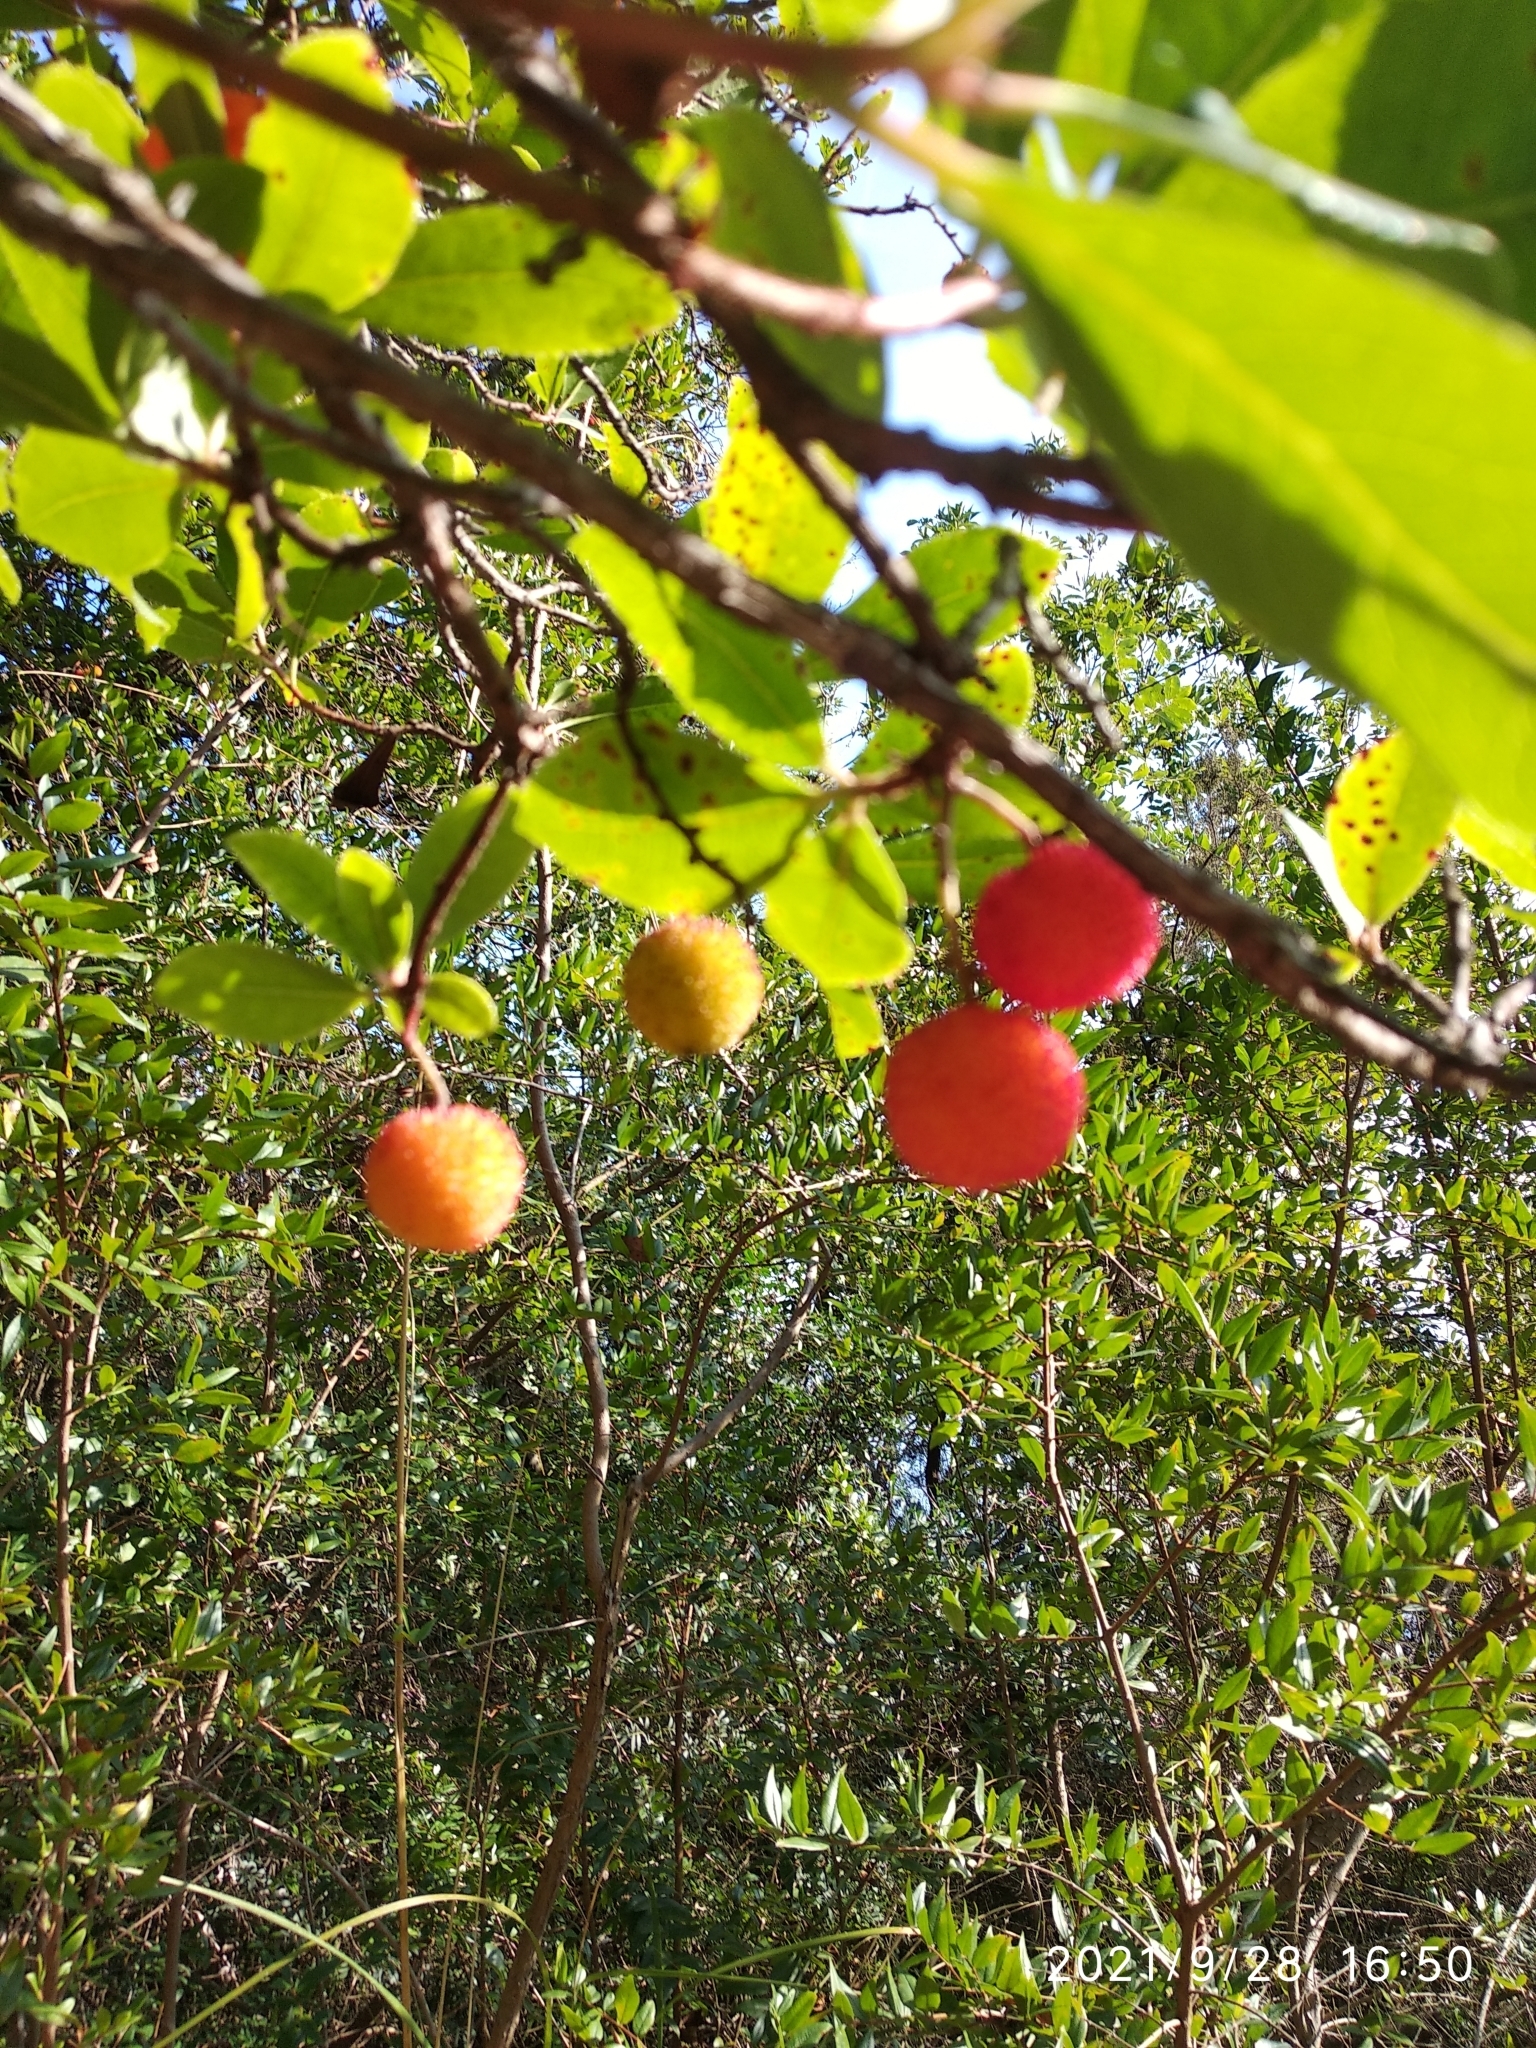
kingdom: Plantae
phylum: Tracheophyta
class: Magnoliopsida
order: Ericales
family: Ericaceae
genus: Arbutus
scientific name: Arbutus unedo
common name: Strawberry-tree
